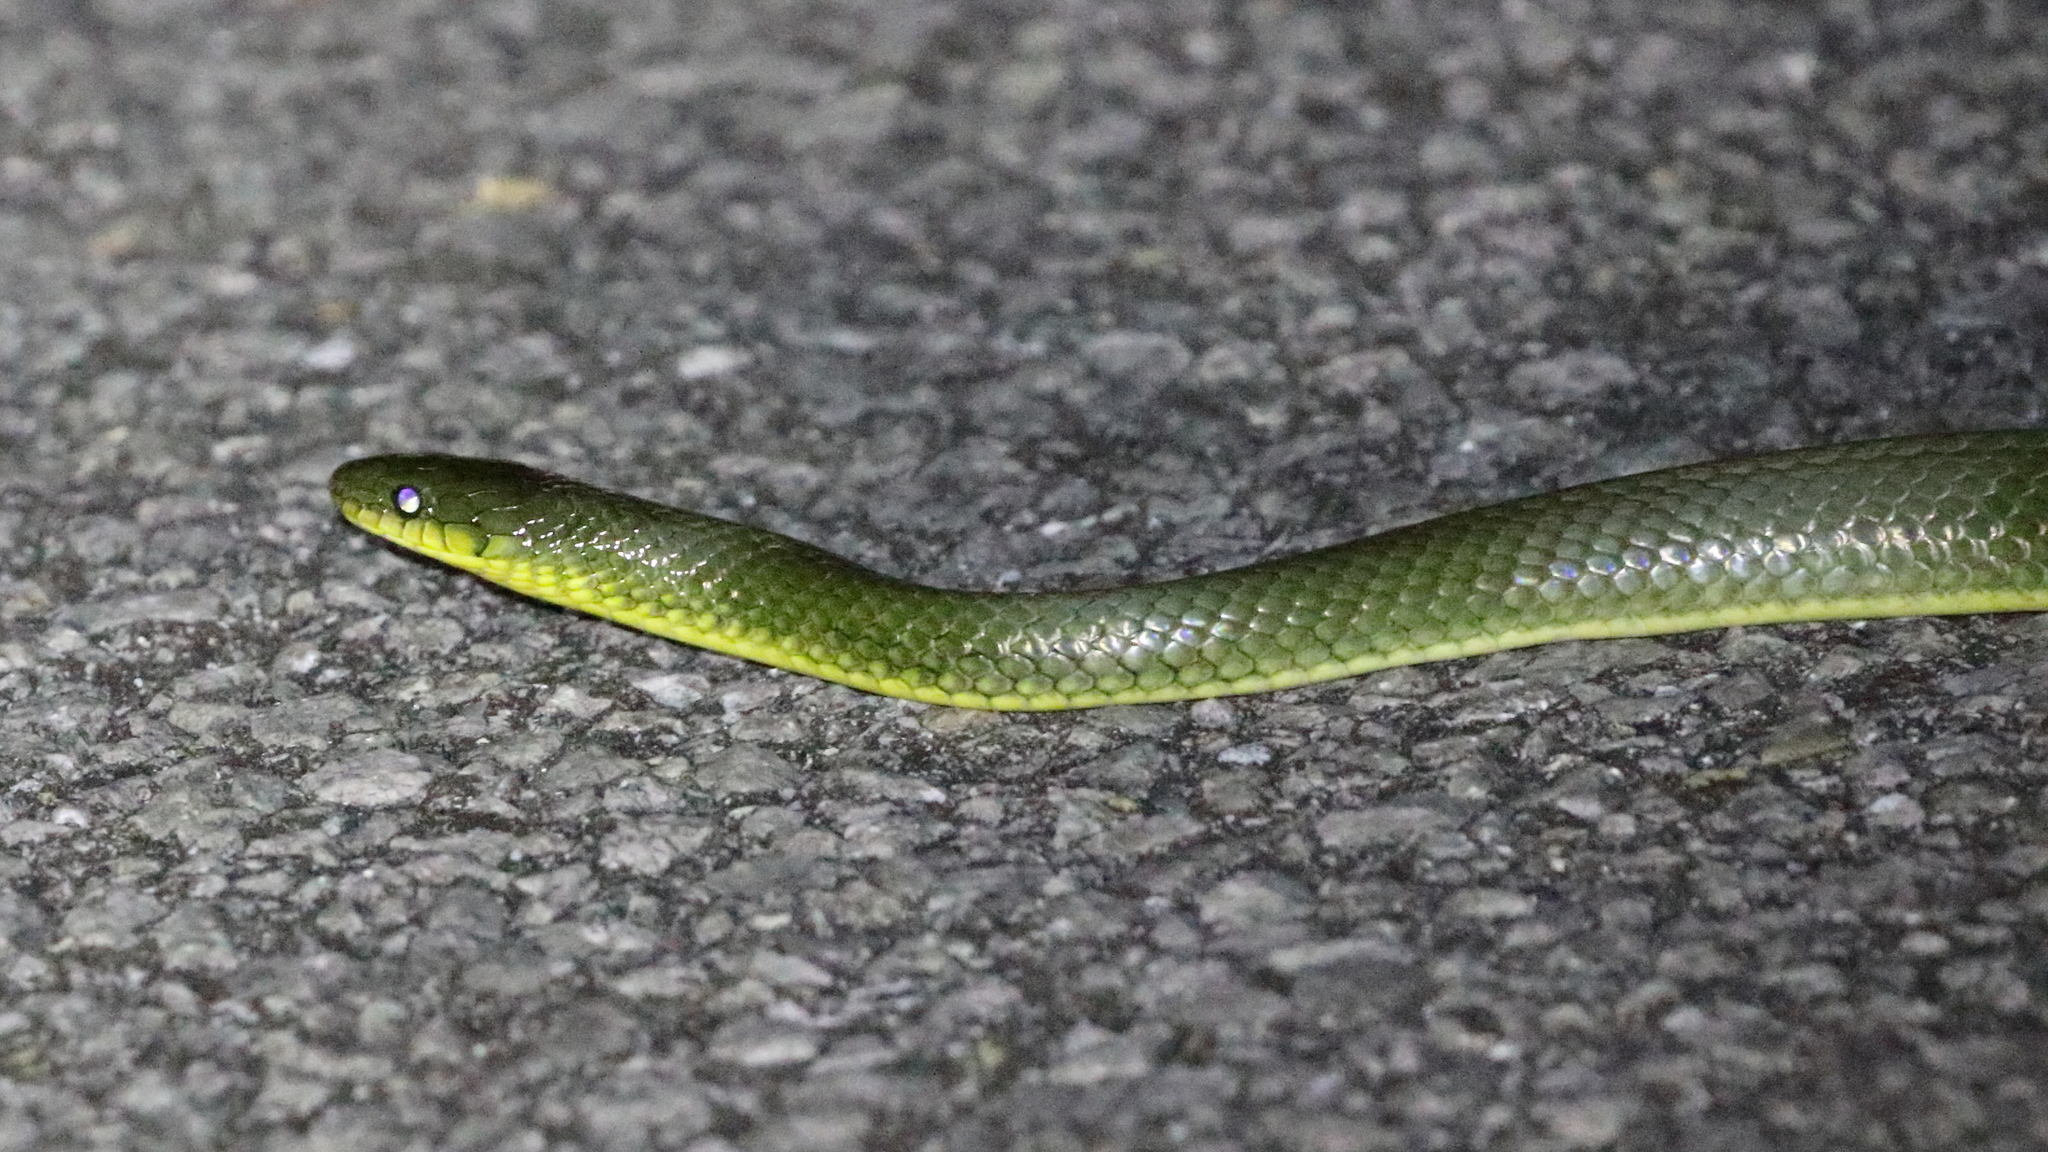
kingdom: Animalia
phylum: Chordata
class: Squamata
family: Colubridae
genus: Ptyas
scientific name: Ptyas semicarinata
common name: Ryukyu green snake
